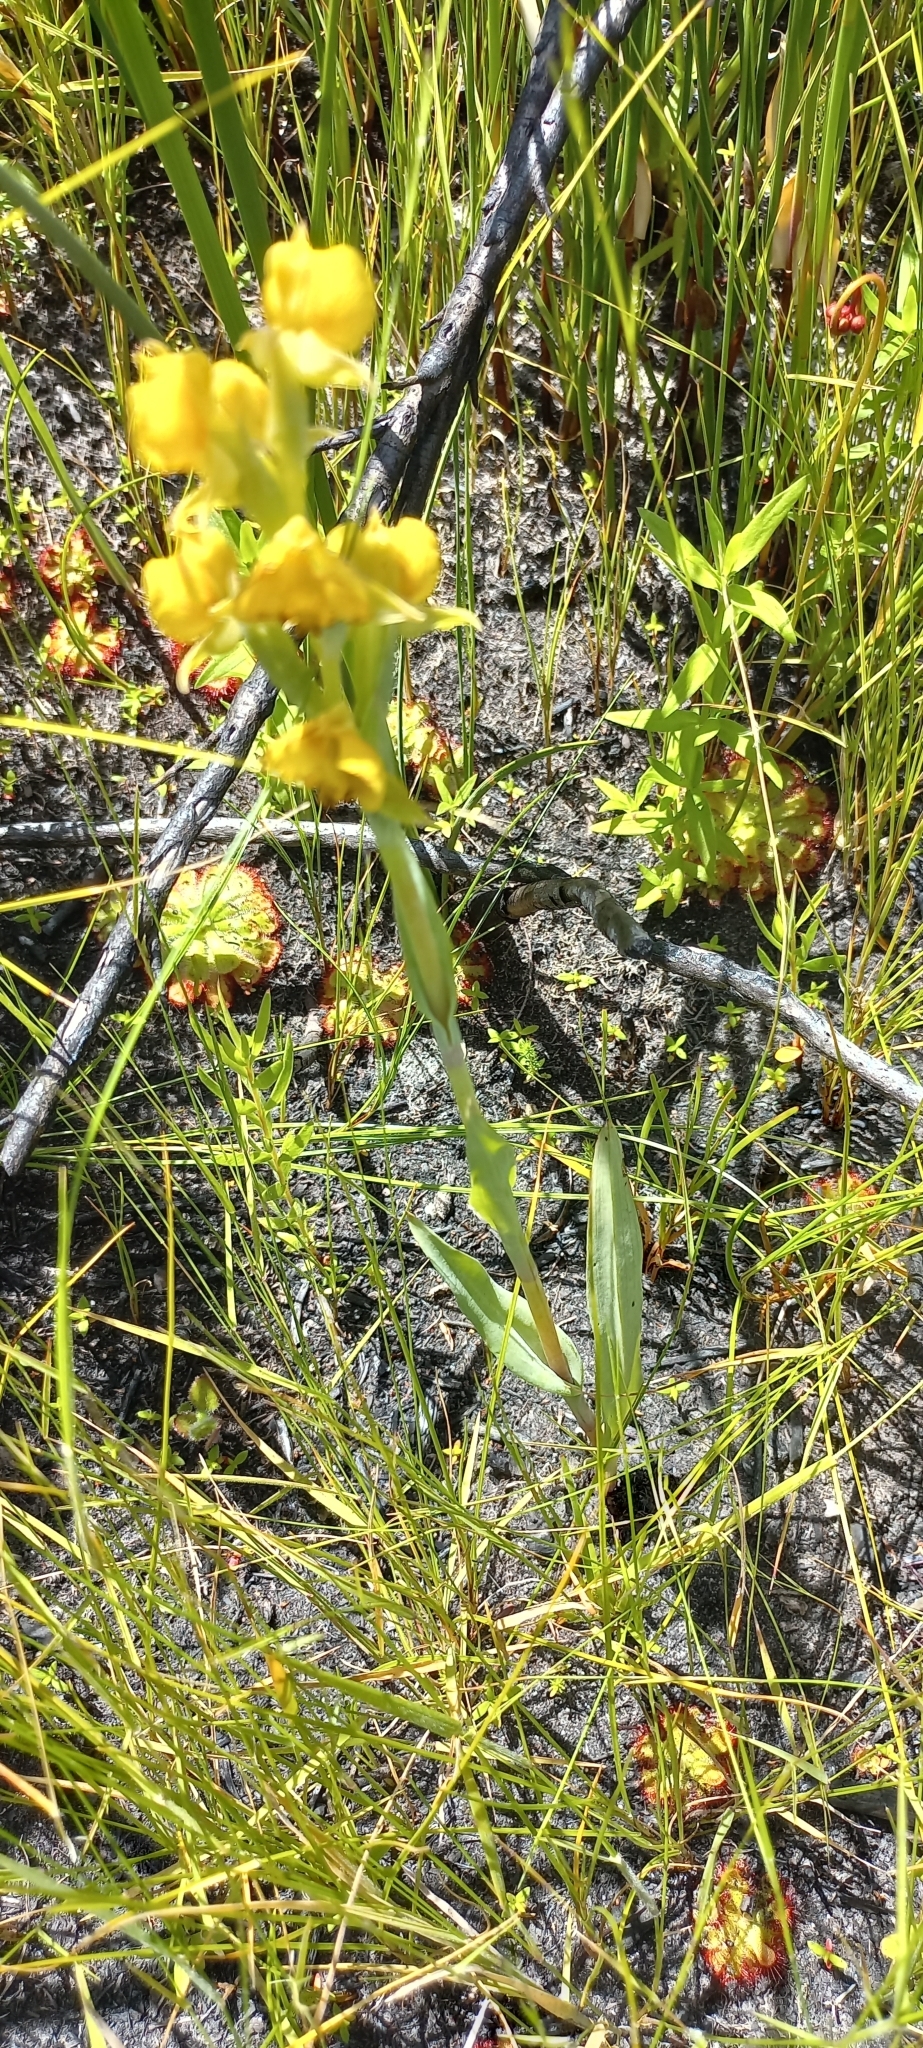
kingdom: Plantae
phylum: Tracheophyta
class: Liliopsida
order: Asparagales
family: Orchidaceae
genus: Pterygodium
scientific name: Pterygodium acutifolium
